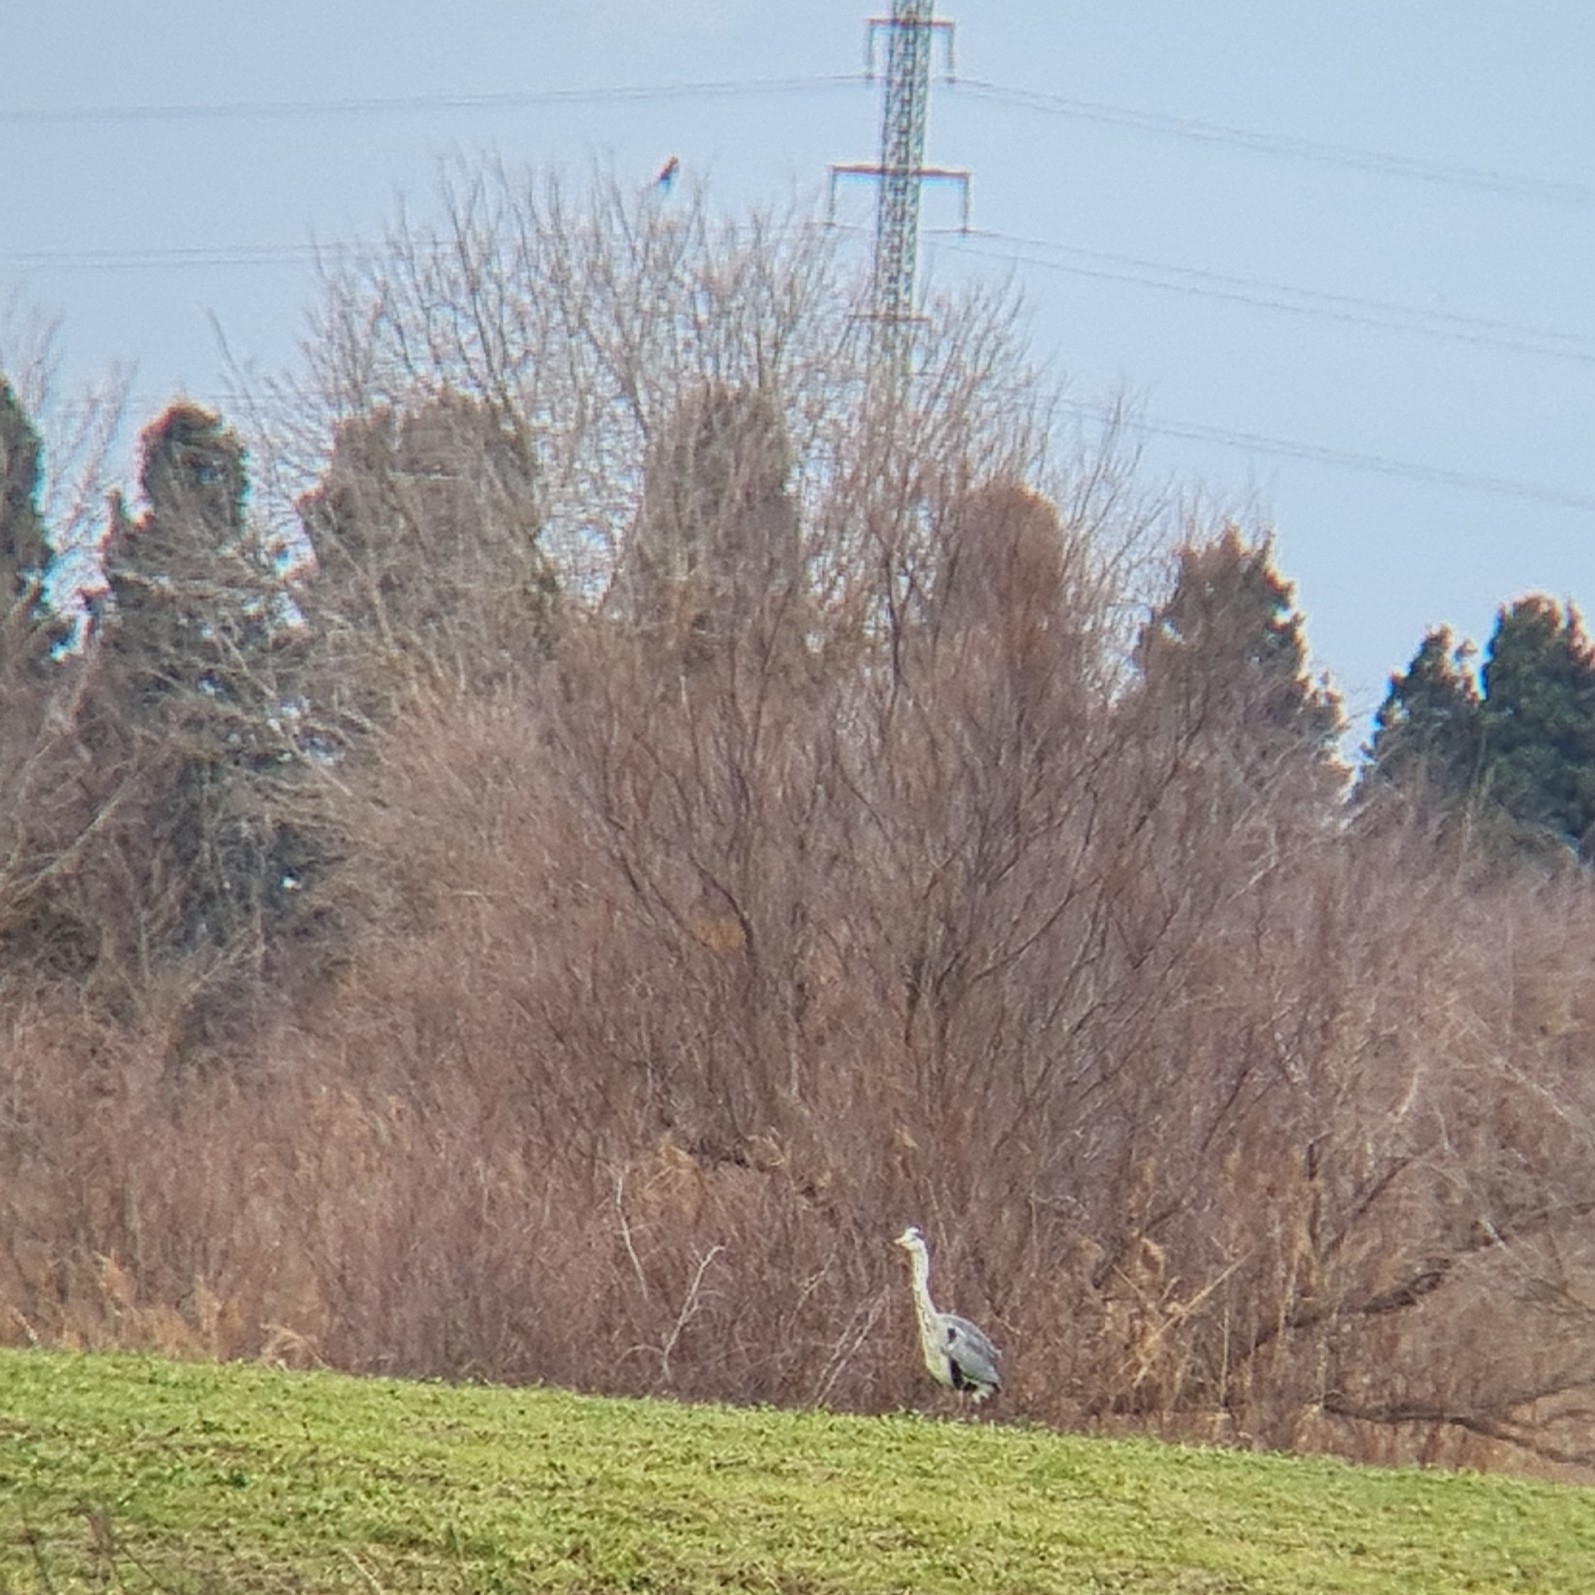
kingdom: Animalia
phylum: Chordata
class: Aves
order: Pelecaniformes
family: Ardeidae
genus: Ardea
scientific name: Ardea cinerea
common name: Grey heron
